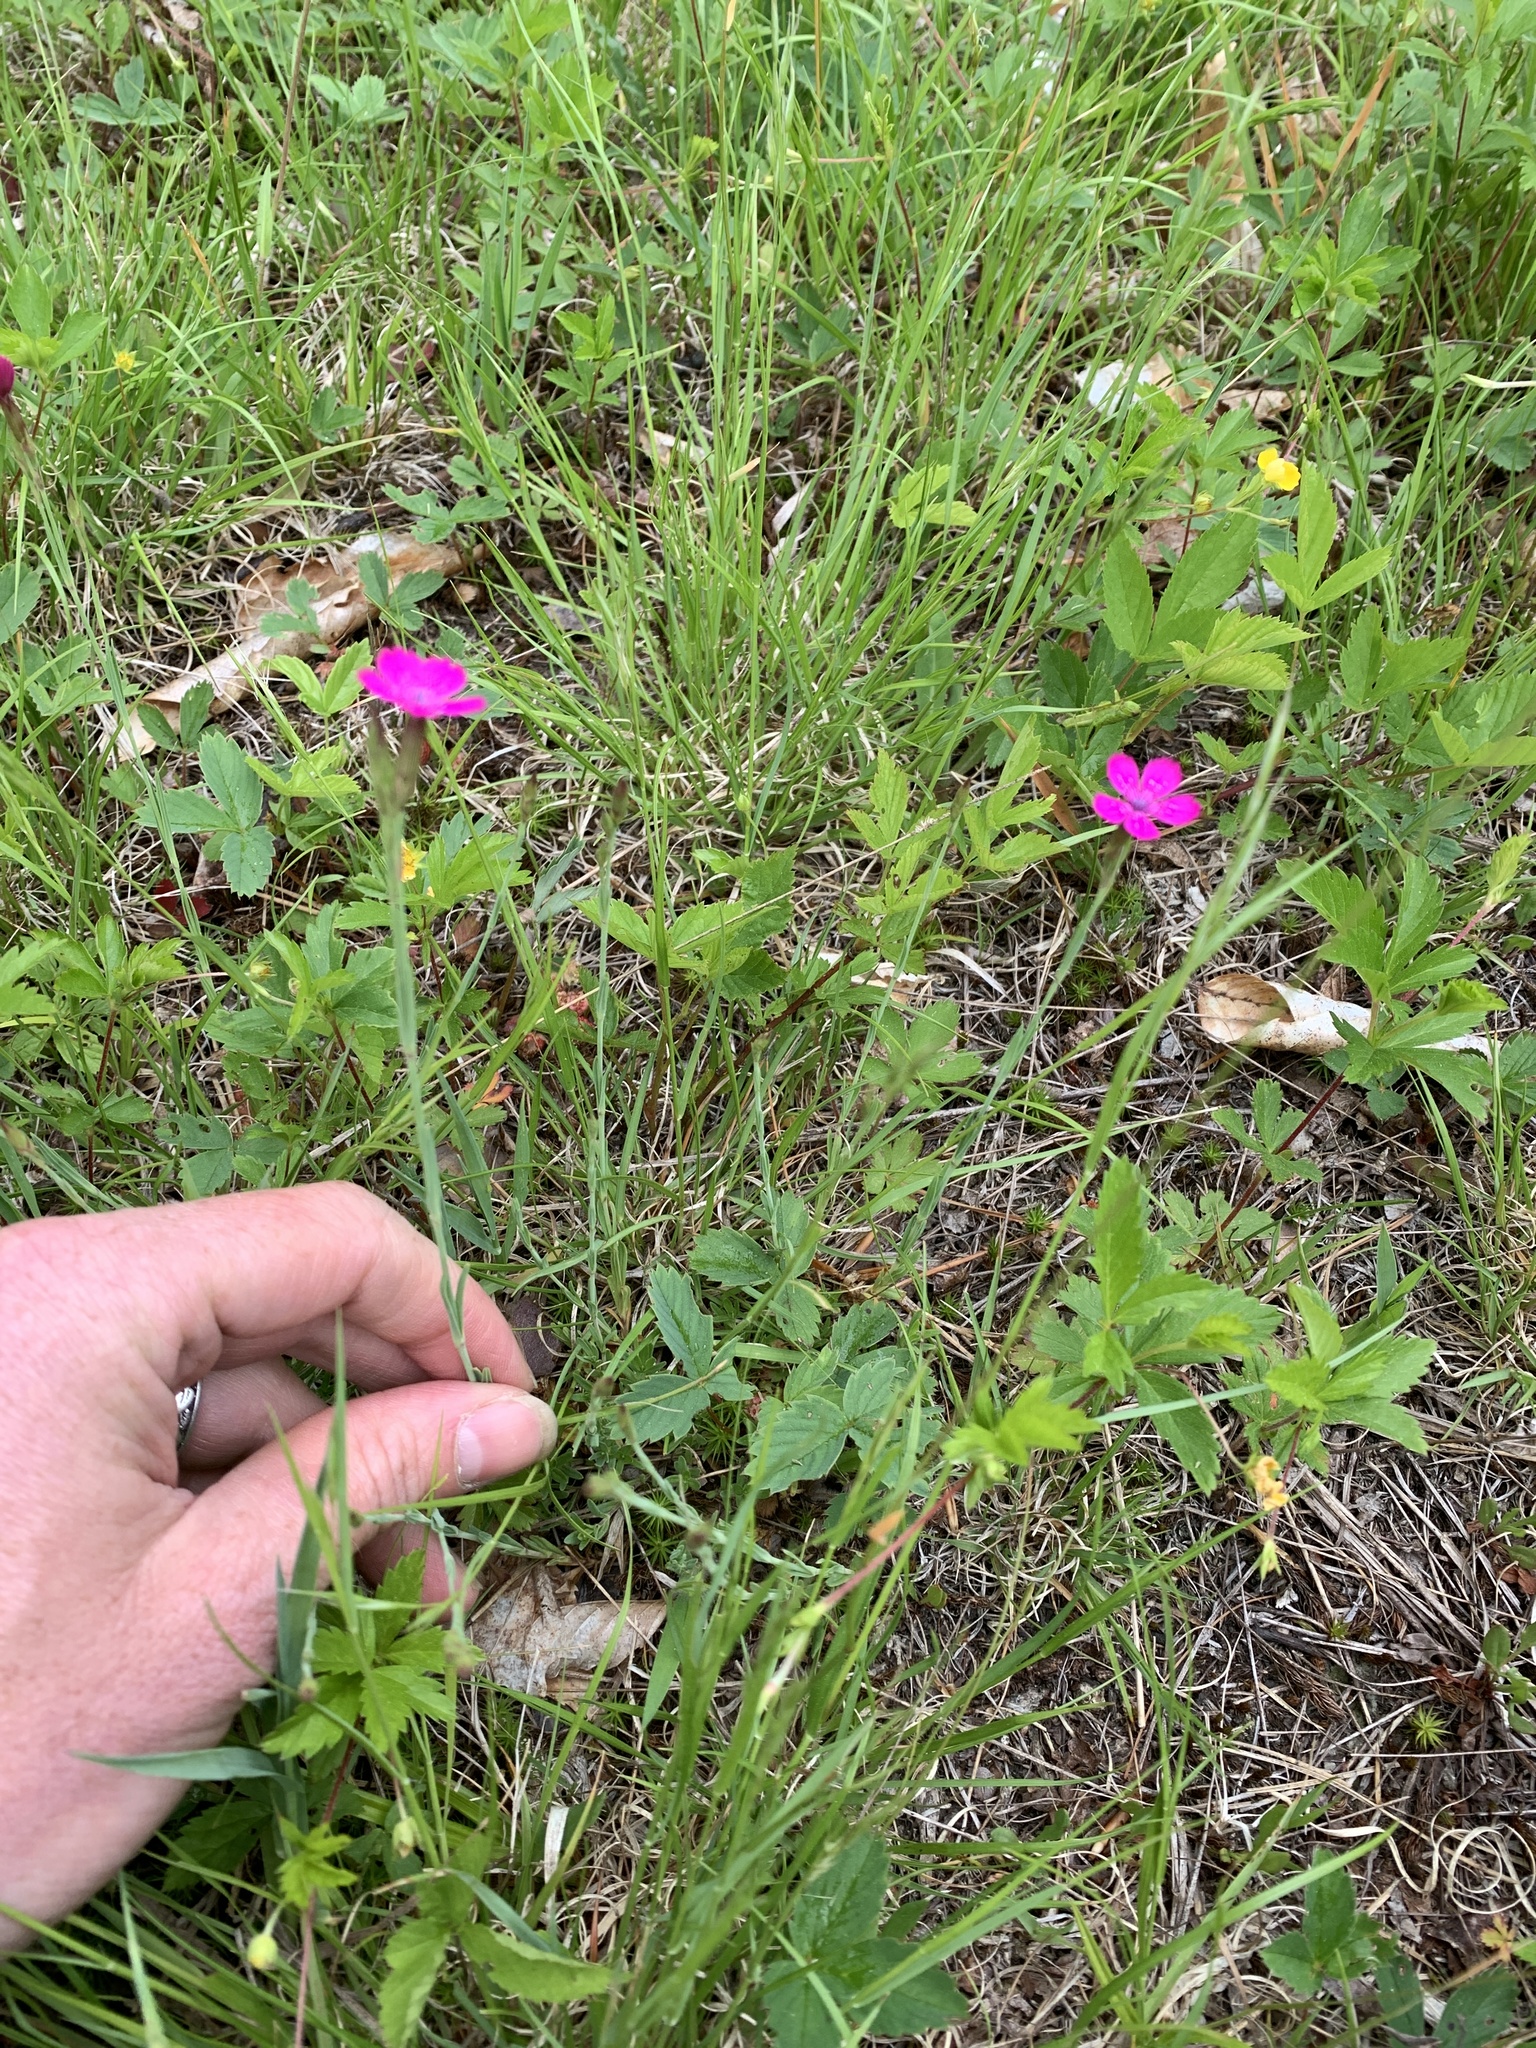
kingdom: Plantae
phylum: Tracheophyta
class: Magnoliopsida
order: Caryophyllales
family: Caryophyllaceae
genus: Dianthus
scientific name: Dianthus deltoides
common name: Maiden pink
